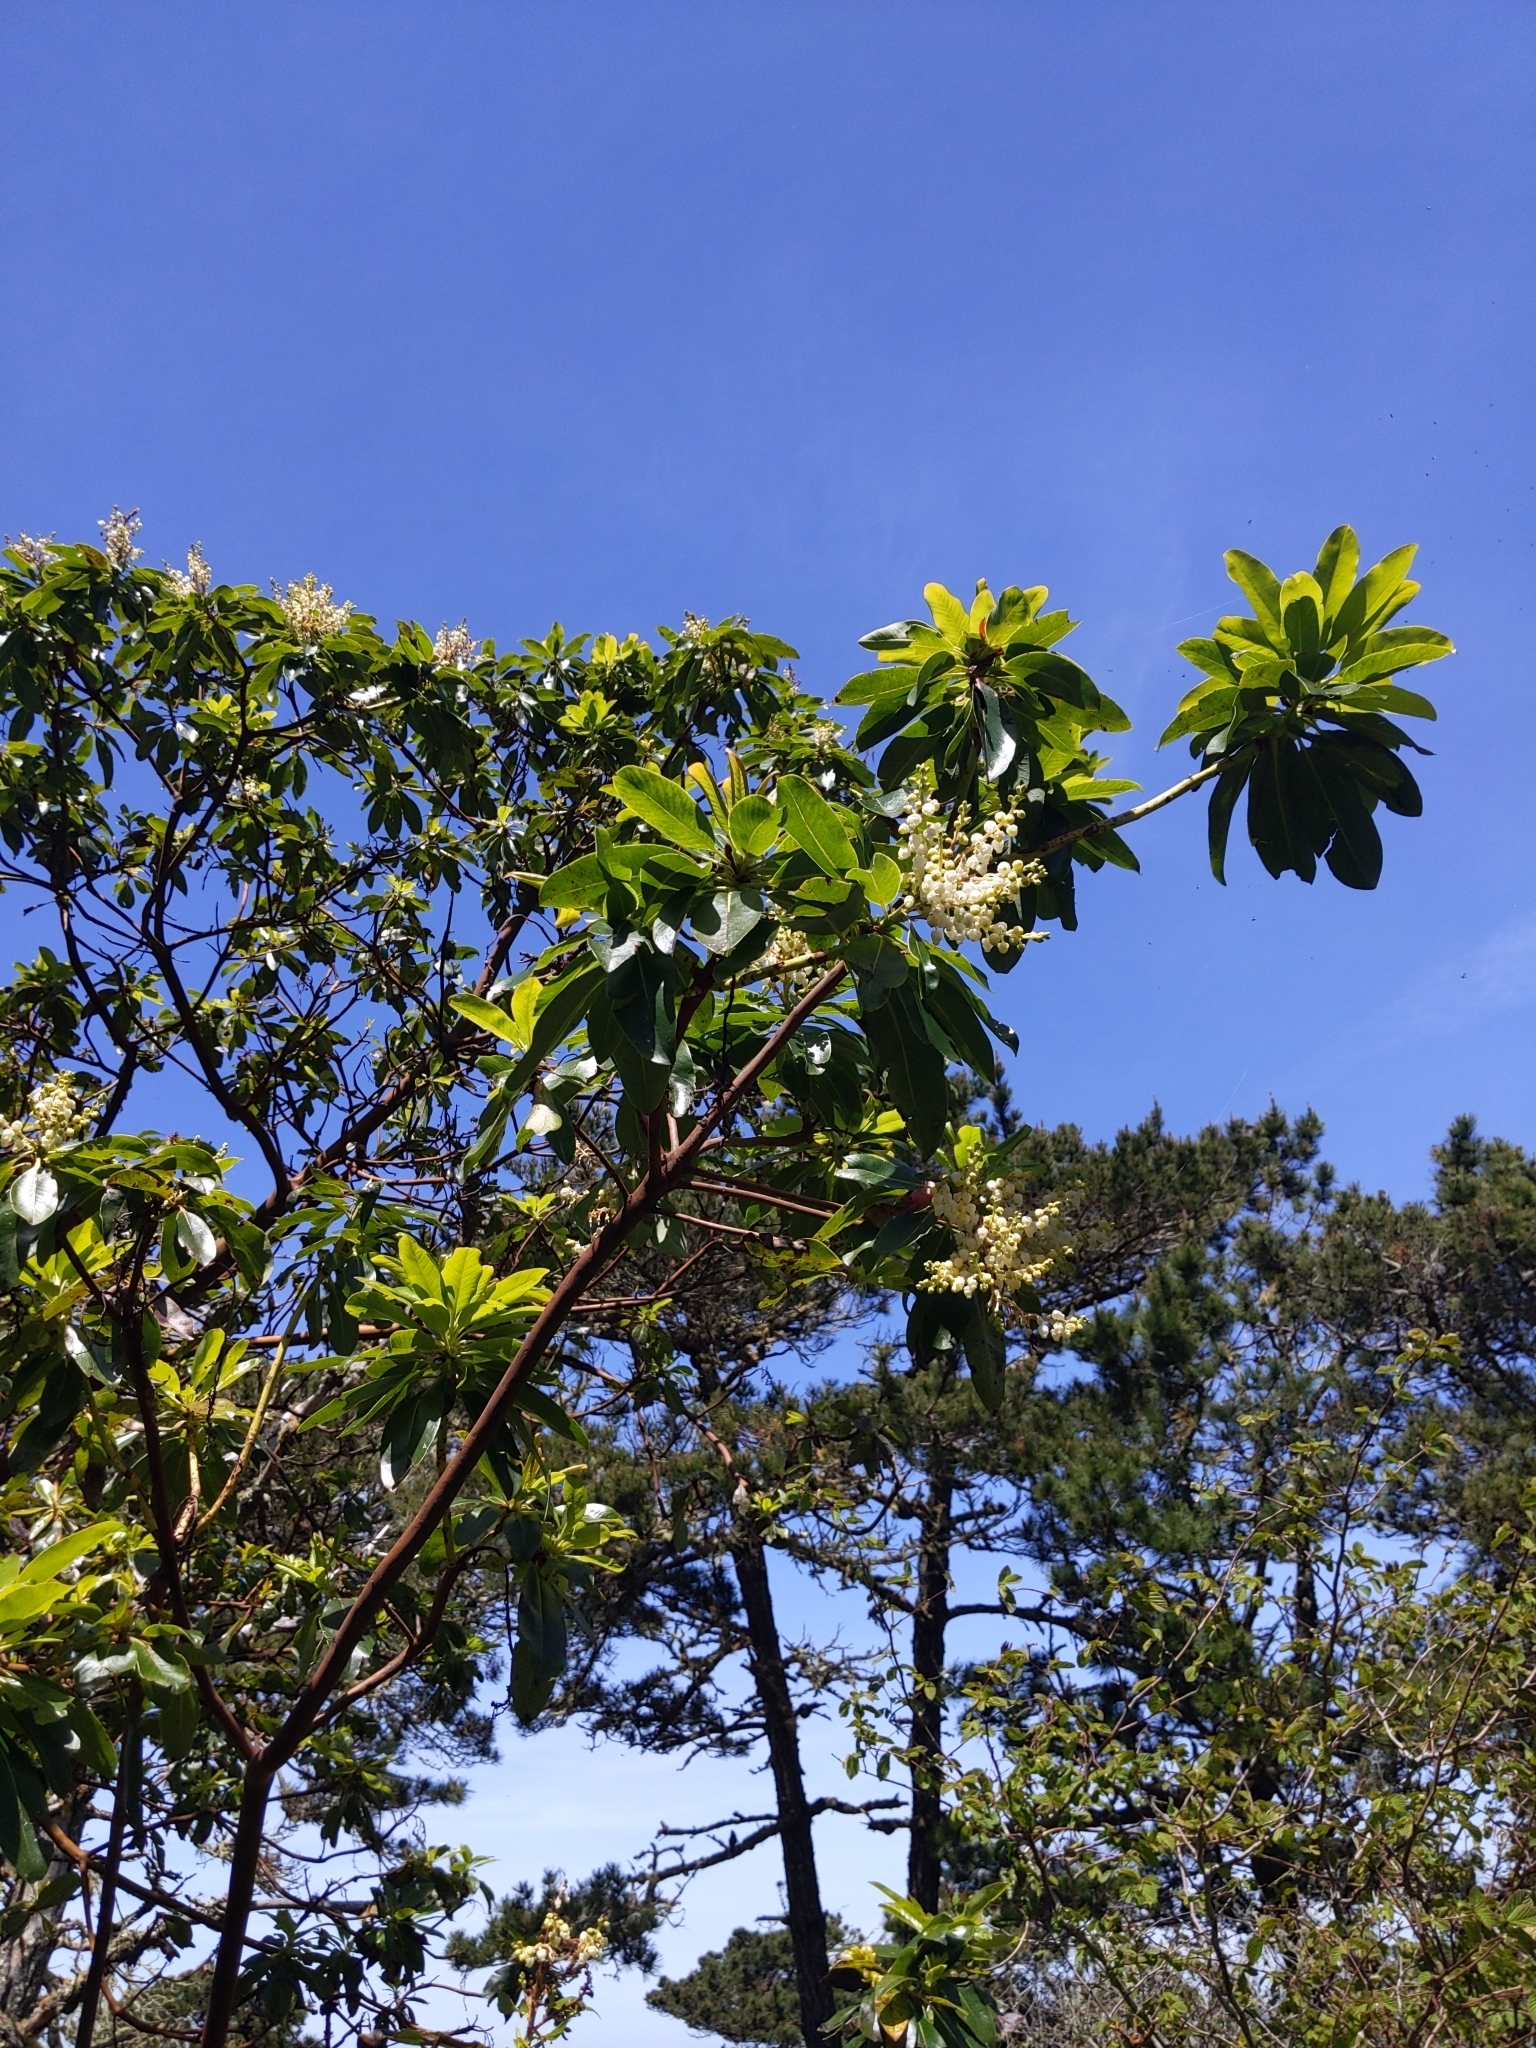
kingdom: Plantae
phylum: Tracheophyta
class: Magnoliopsida
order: Ericales
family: Ericaceae
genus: Arbutus
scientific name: Arbutus menziesii
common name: Pacific madrone
